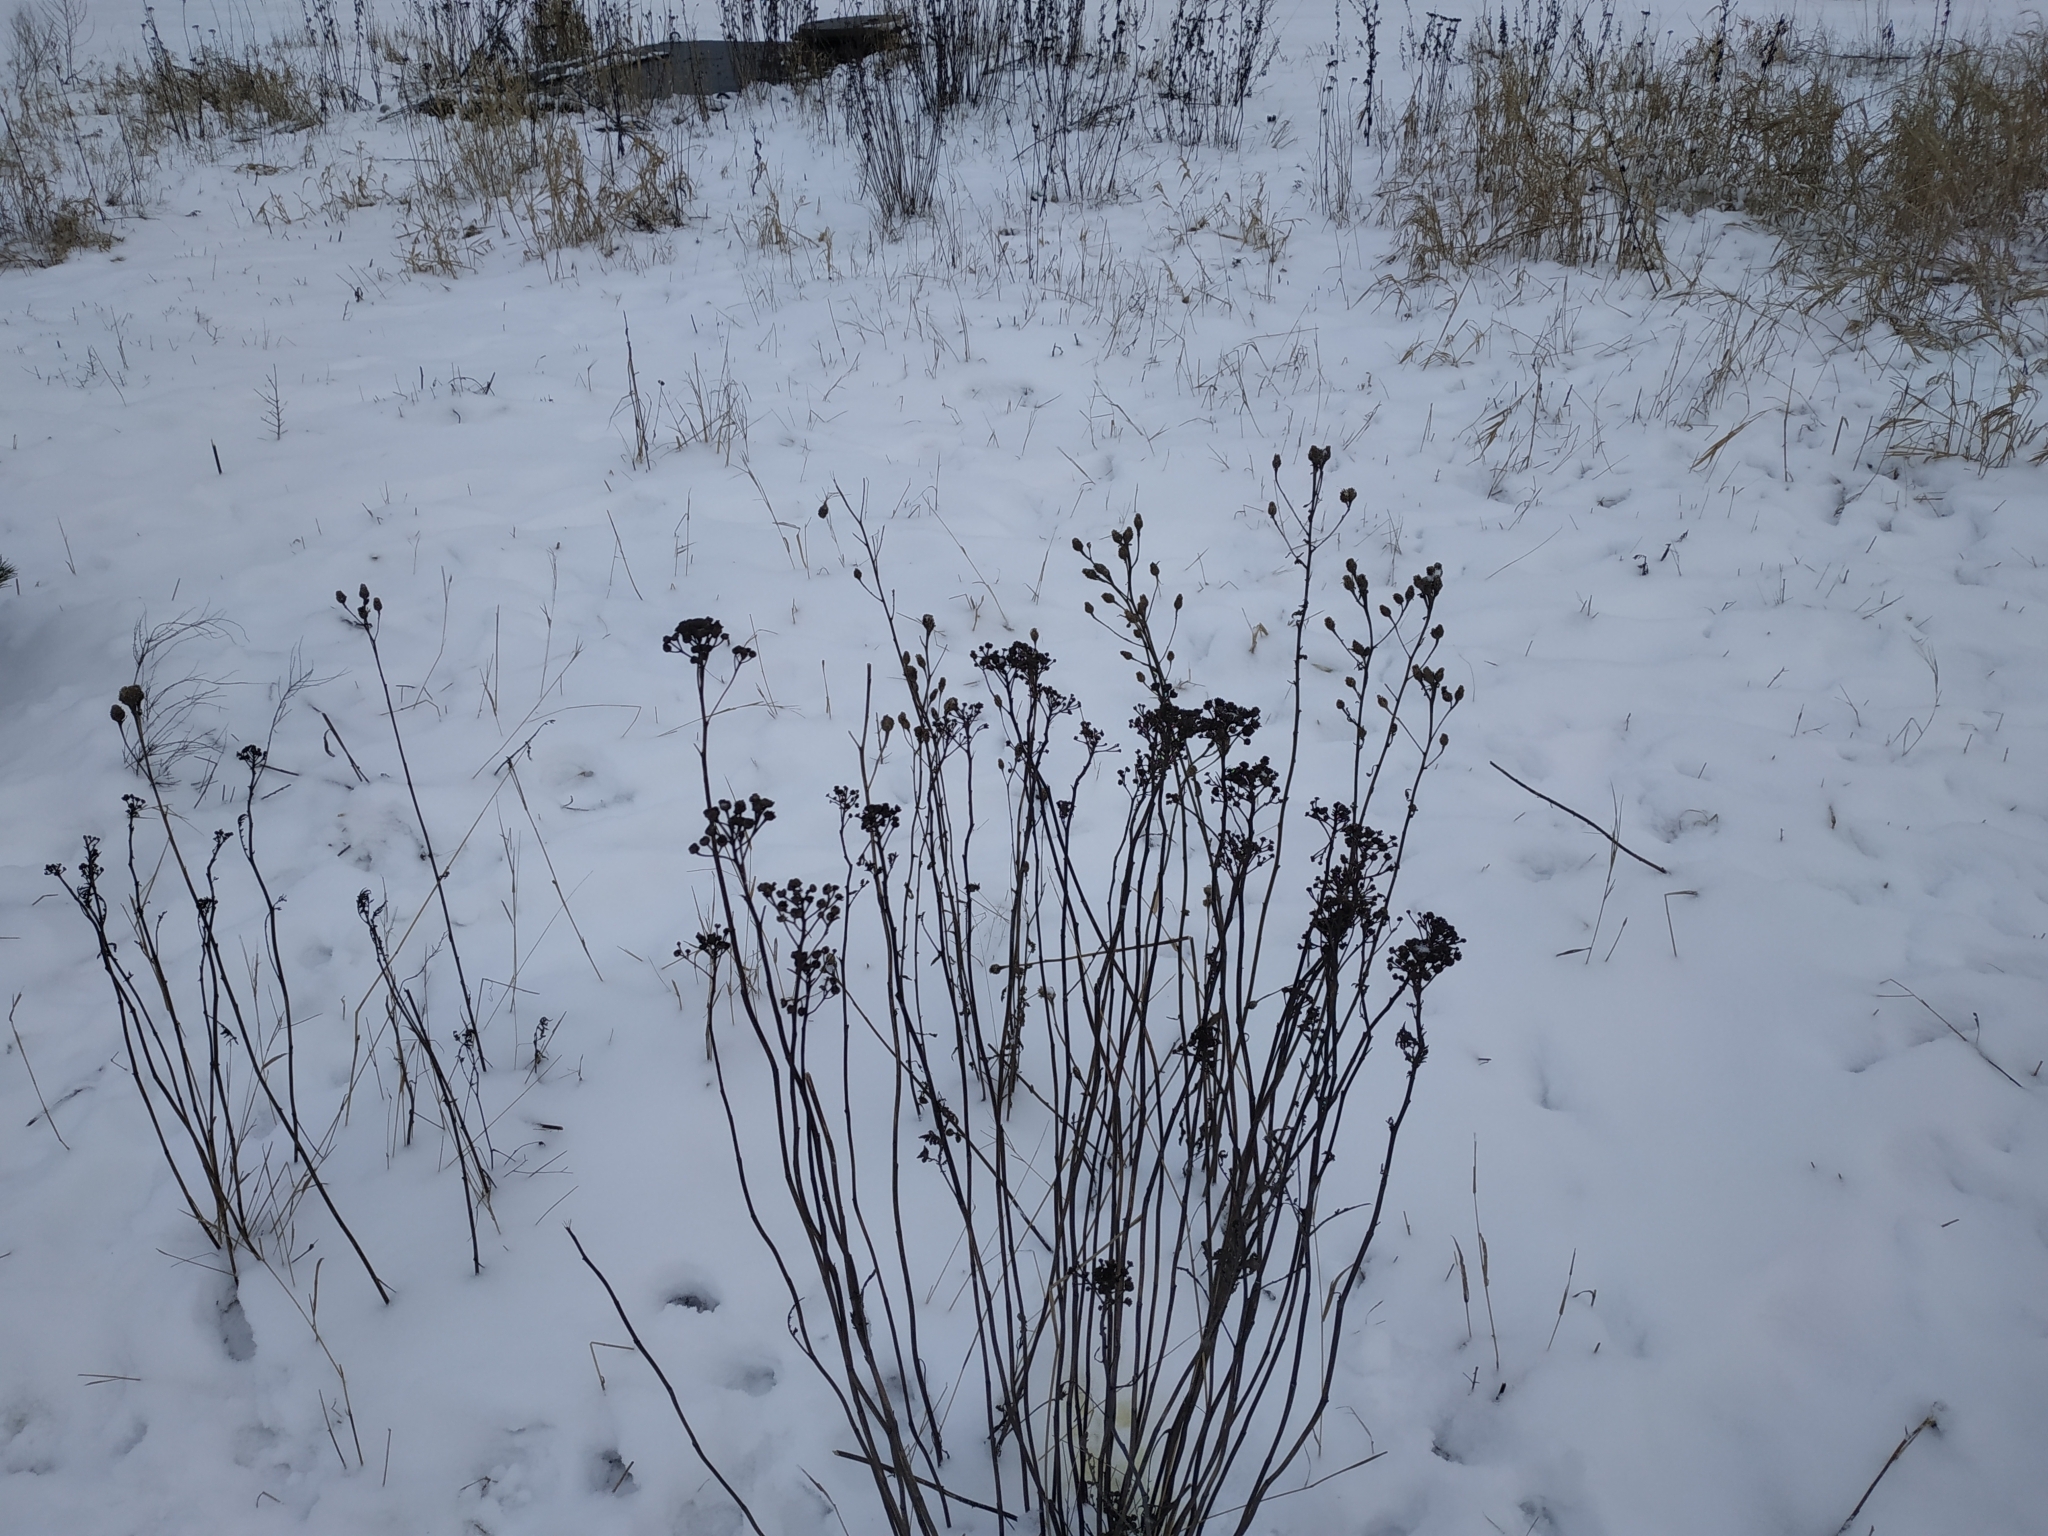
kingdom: Plantae
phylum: Tracheophyta
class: Magnoliopsida
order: Asterales
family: Asteraceae
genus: Tanacetum
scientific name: Tanacetum vulgare
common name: Common tansy
